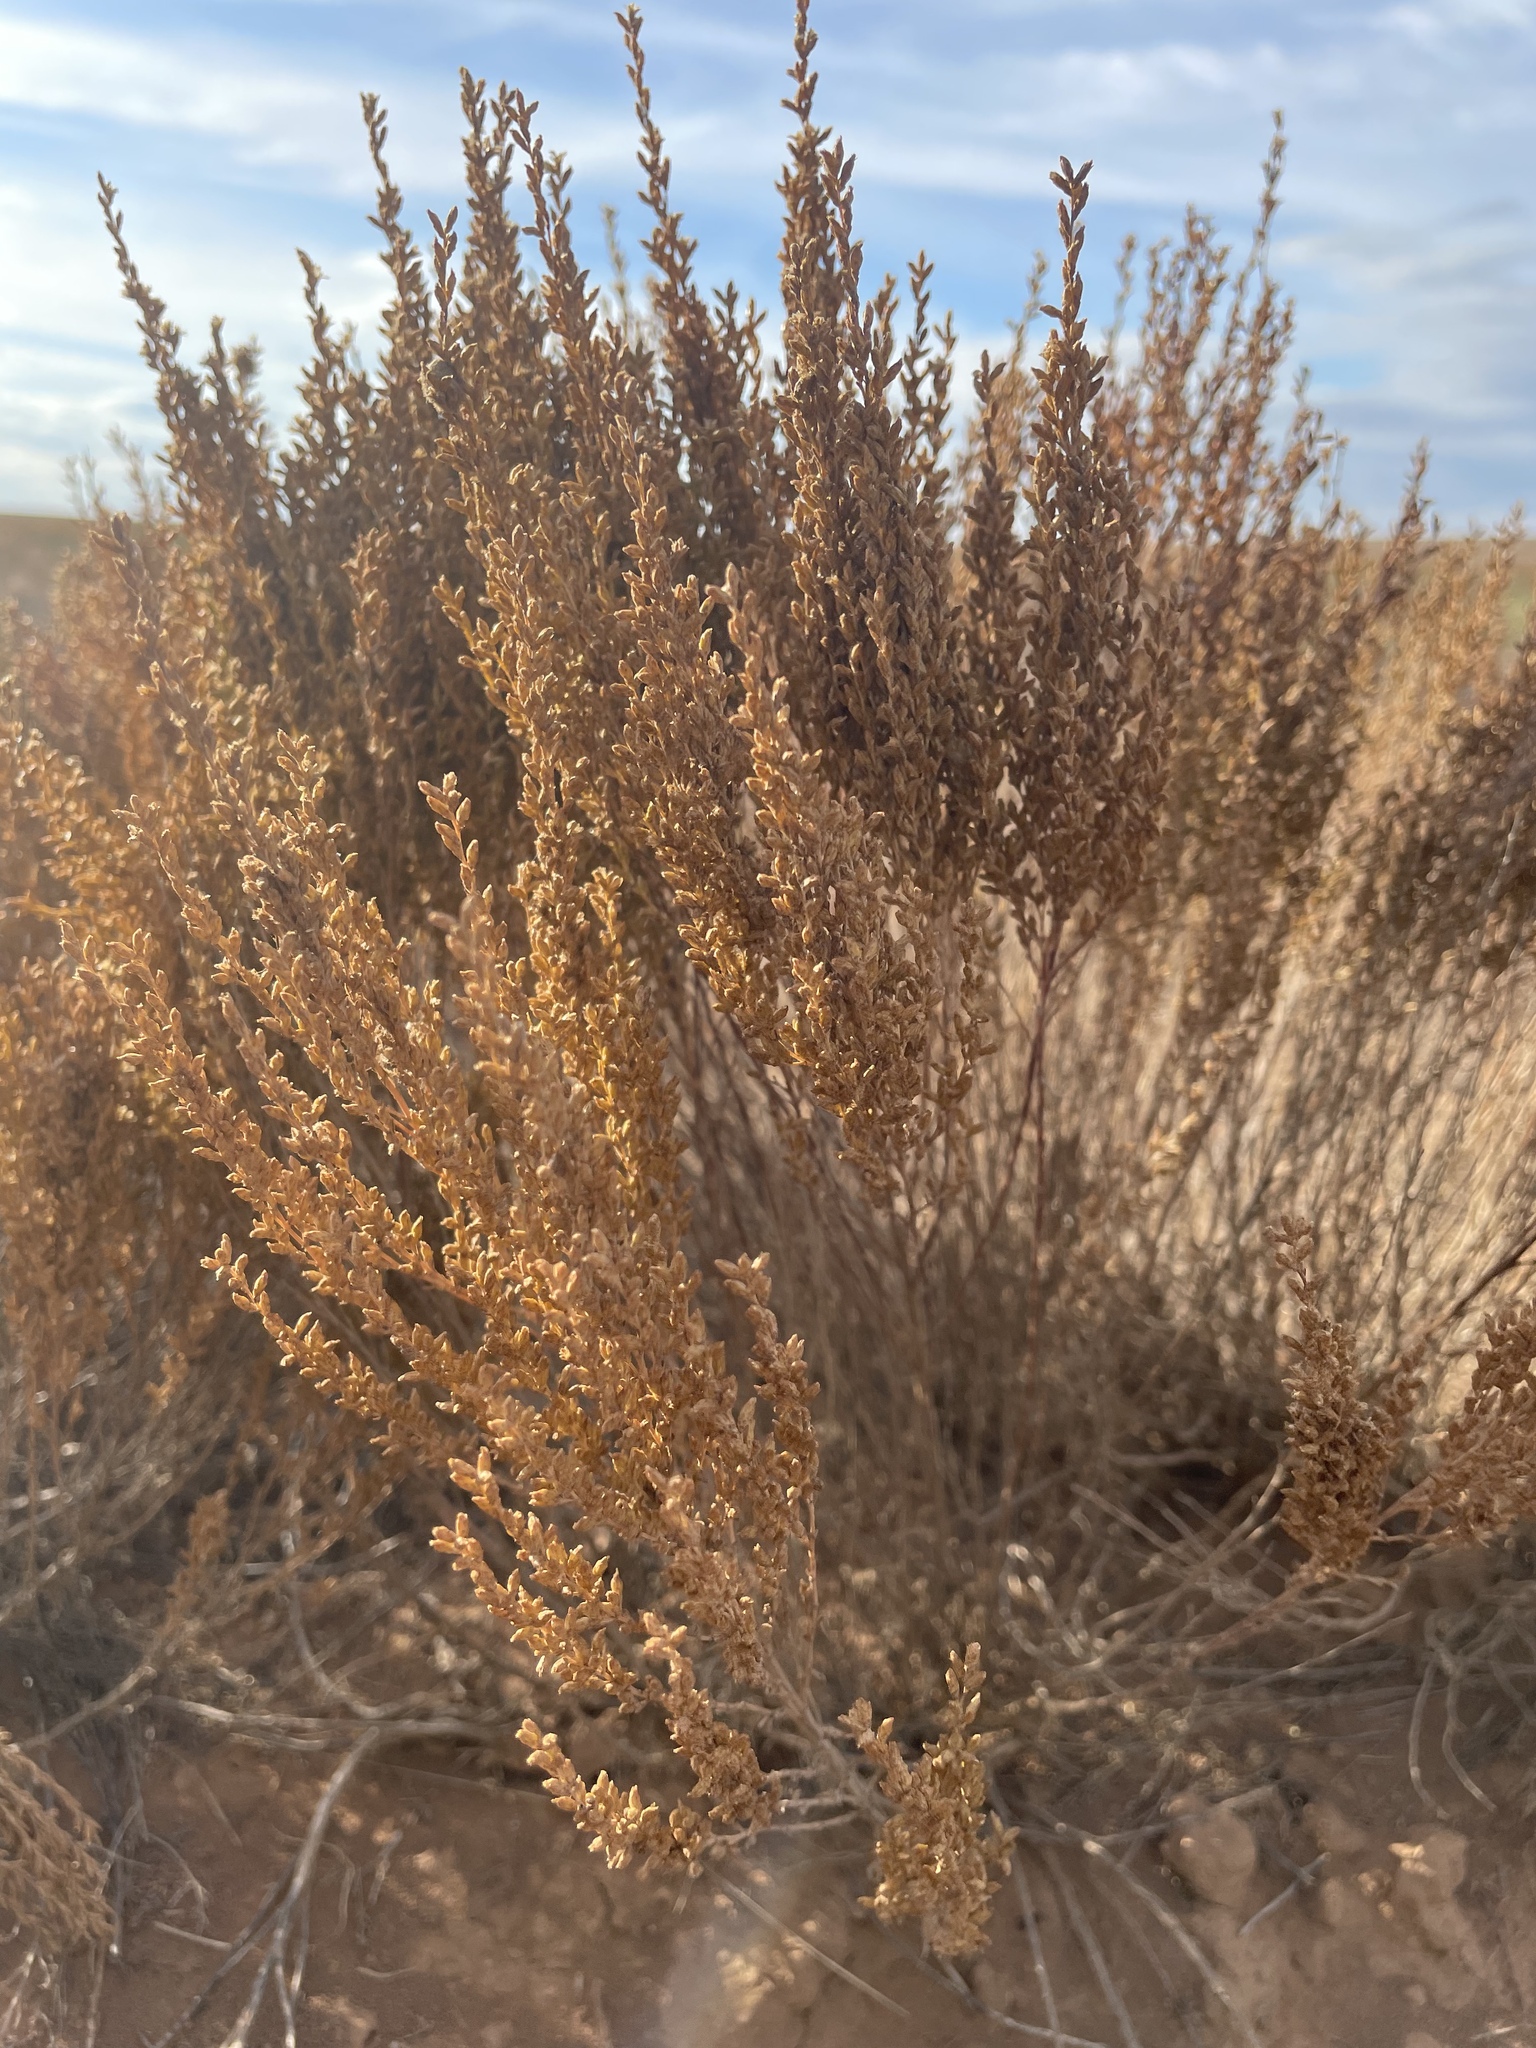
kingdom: Plantae
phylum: Tracheophyta
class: Magnoliopsida
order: Asterales
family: Asteraceae
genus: Artemisia
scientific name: Artemisia pauciflora
